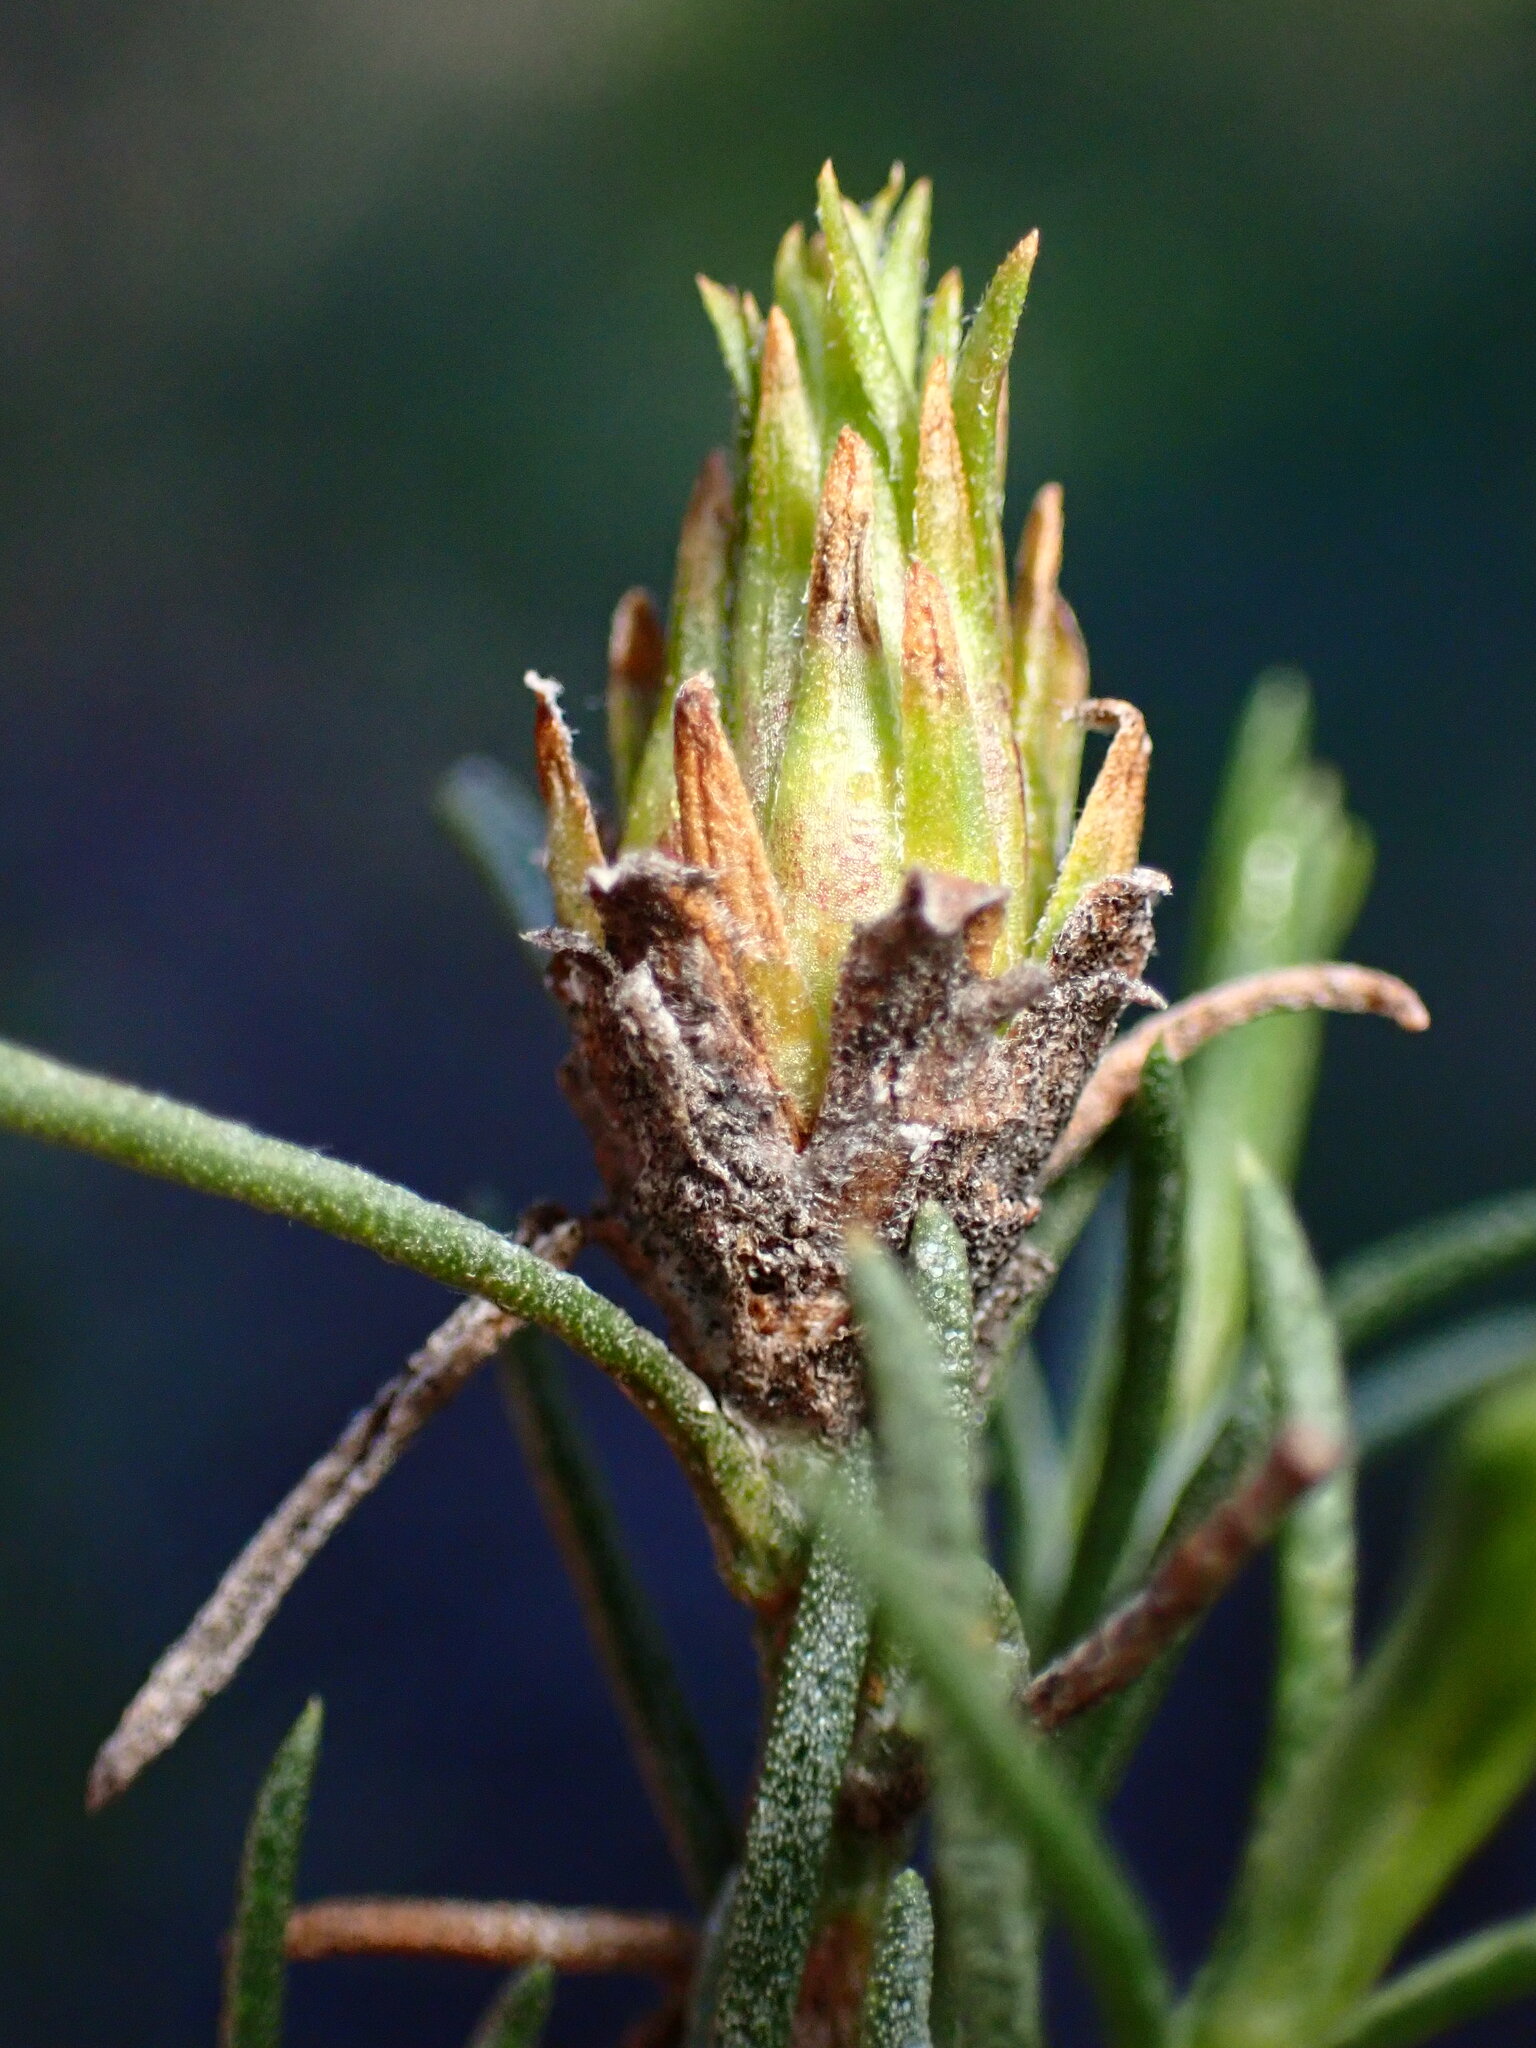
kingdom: Plantae
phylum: Tracheophyta
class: Magnoliopsida
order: Asterales
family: Asteraceae
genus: Ericameria
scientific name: Ericameria pinifolia
